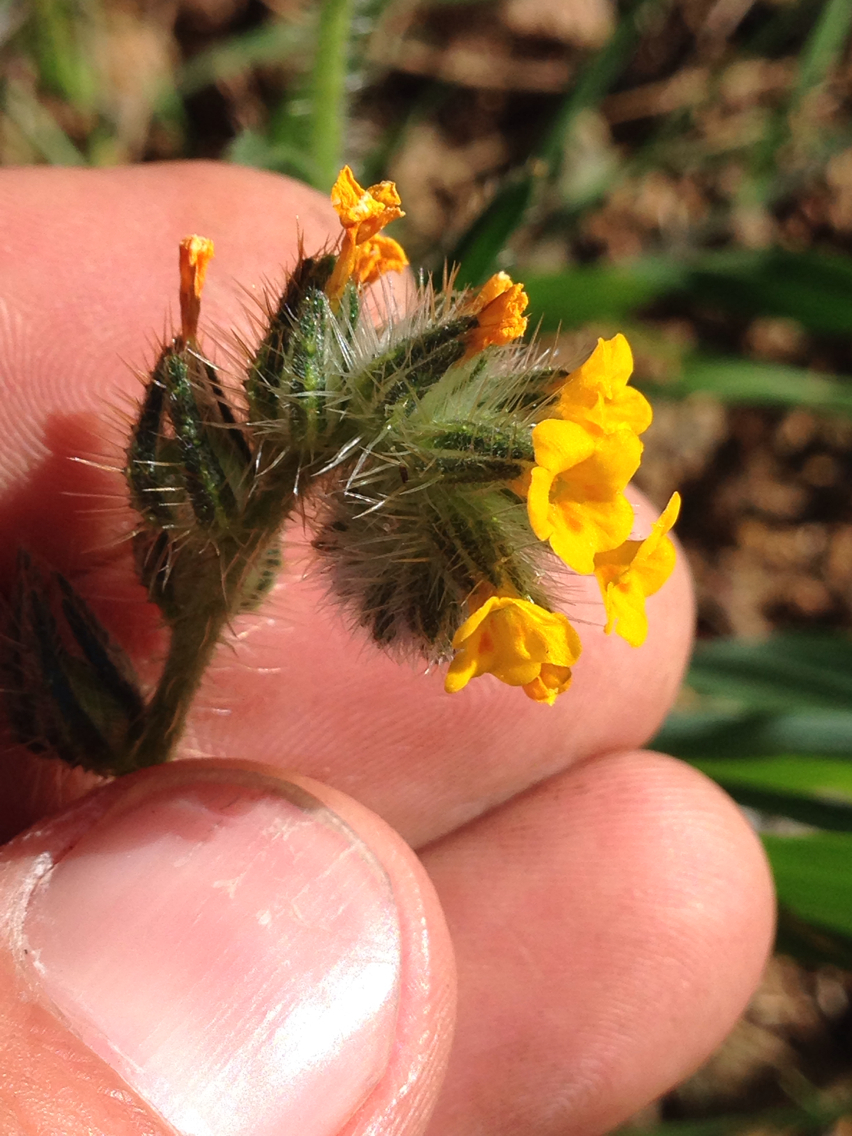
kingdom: Plantae
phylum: Tracheophyta
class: Magnoliopsida
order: Boraginales
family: Boraginaceae
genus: Amsinckia
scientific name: Amsinckia menziesii
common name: Menzies' fiddleneck
